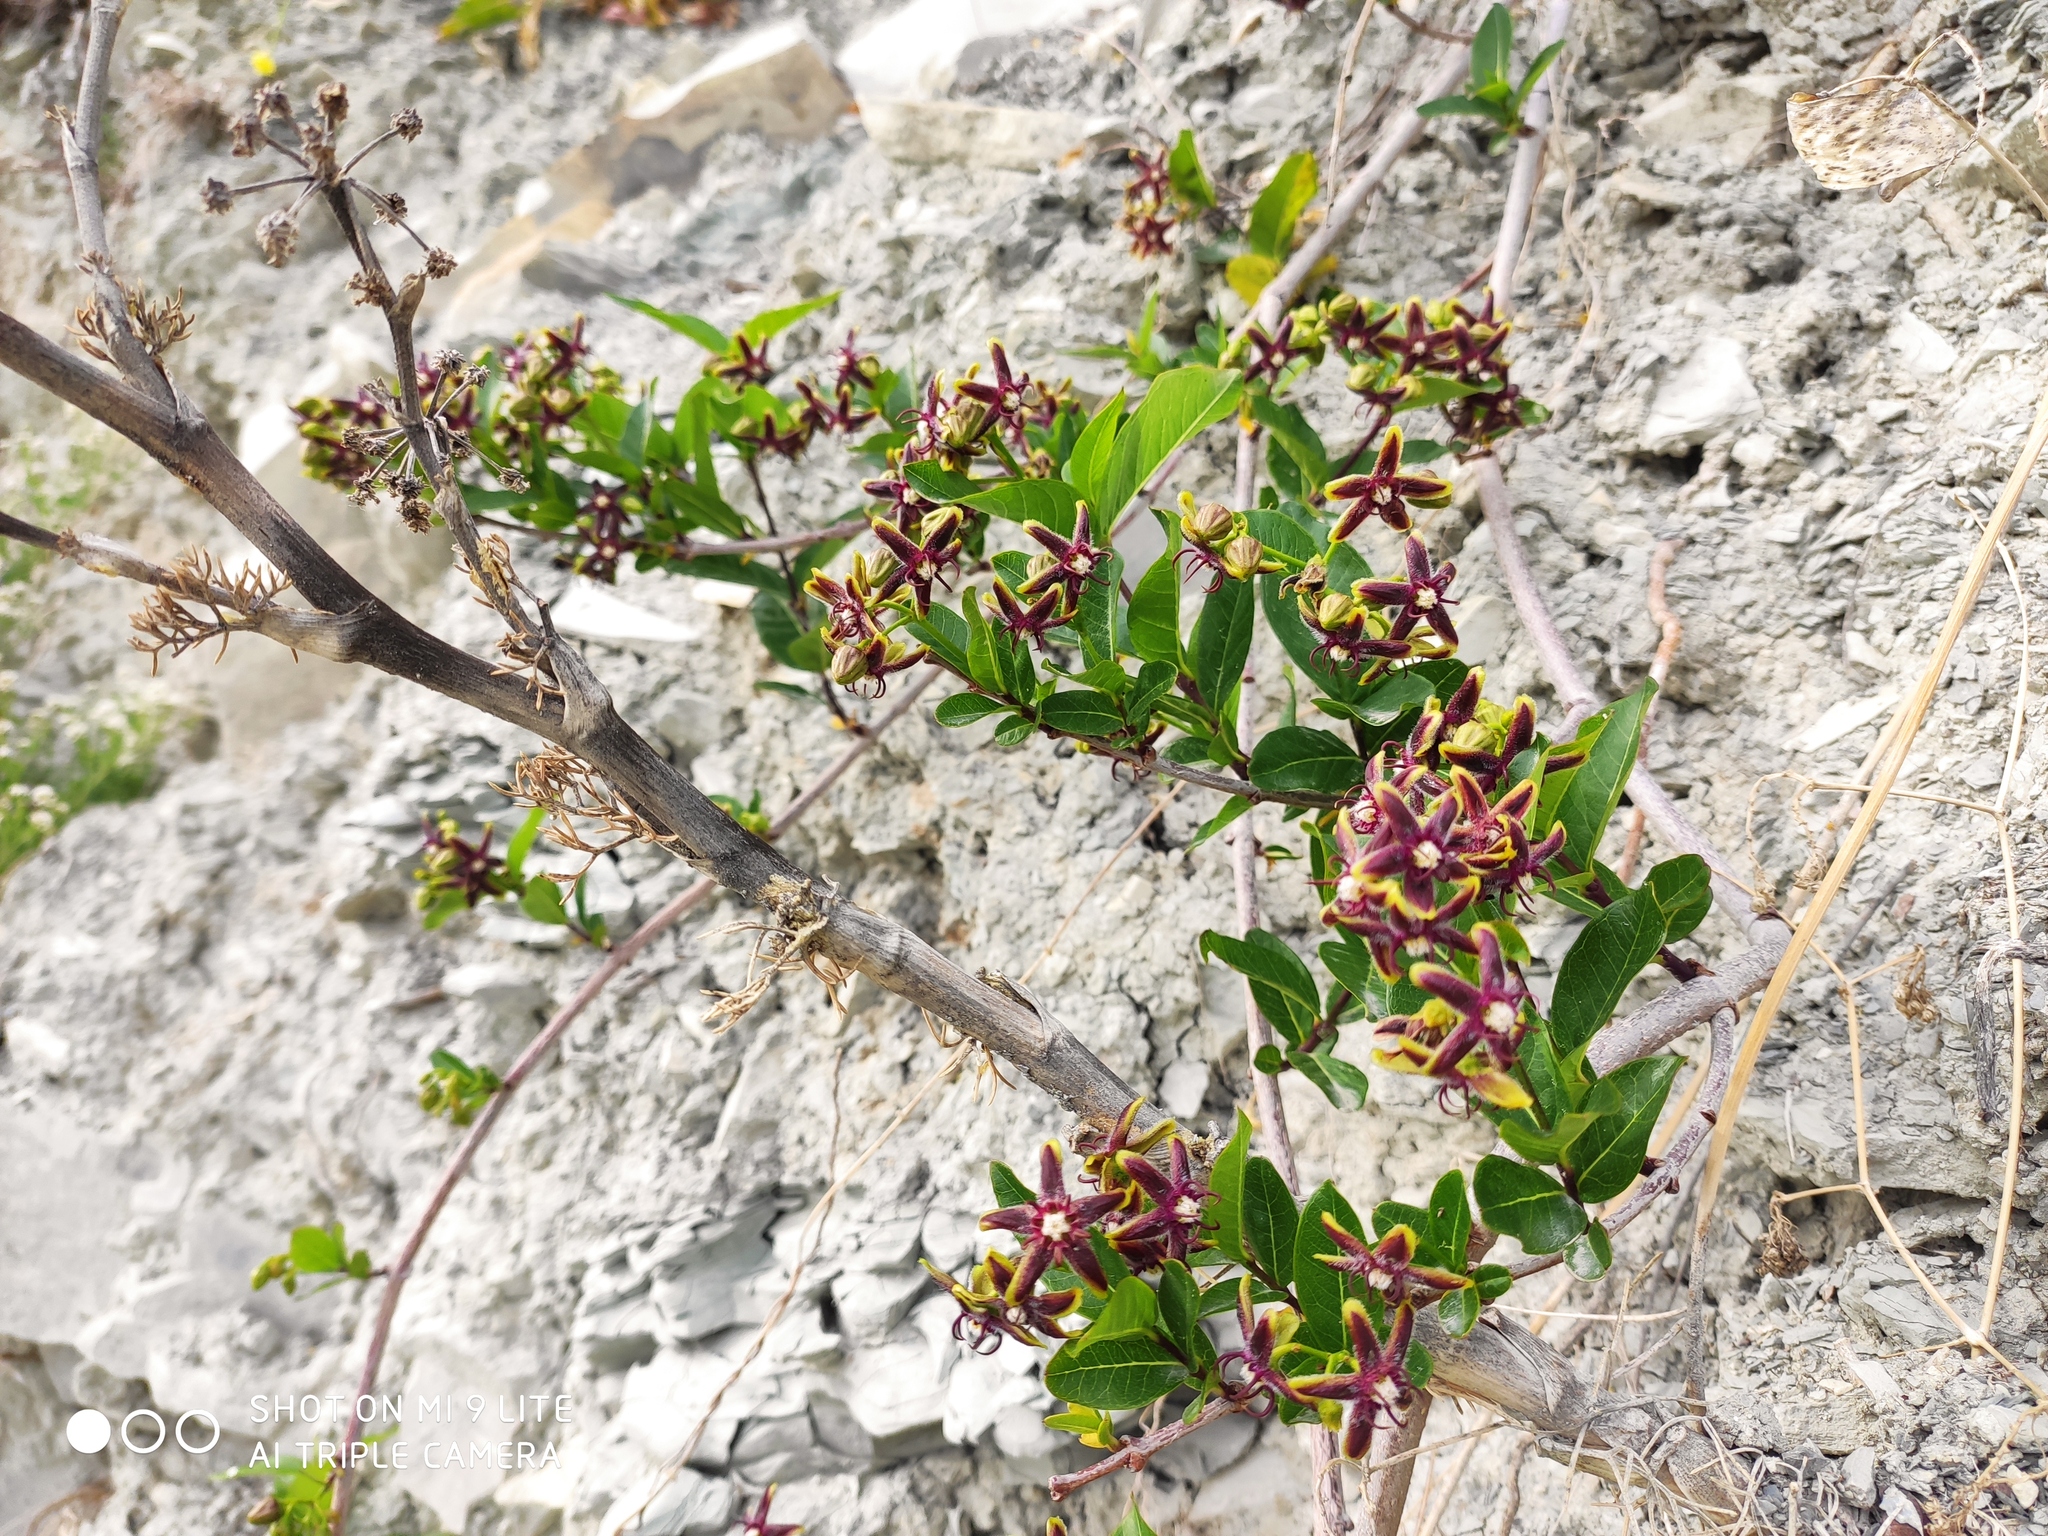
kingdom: Plantae
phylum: Tracheophyta
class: Magnoliopsida
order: Gentianales
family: Apocynaceae
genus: Periploca
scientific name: Periploca graeca
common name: Silkvine
